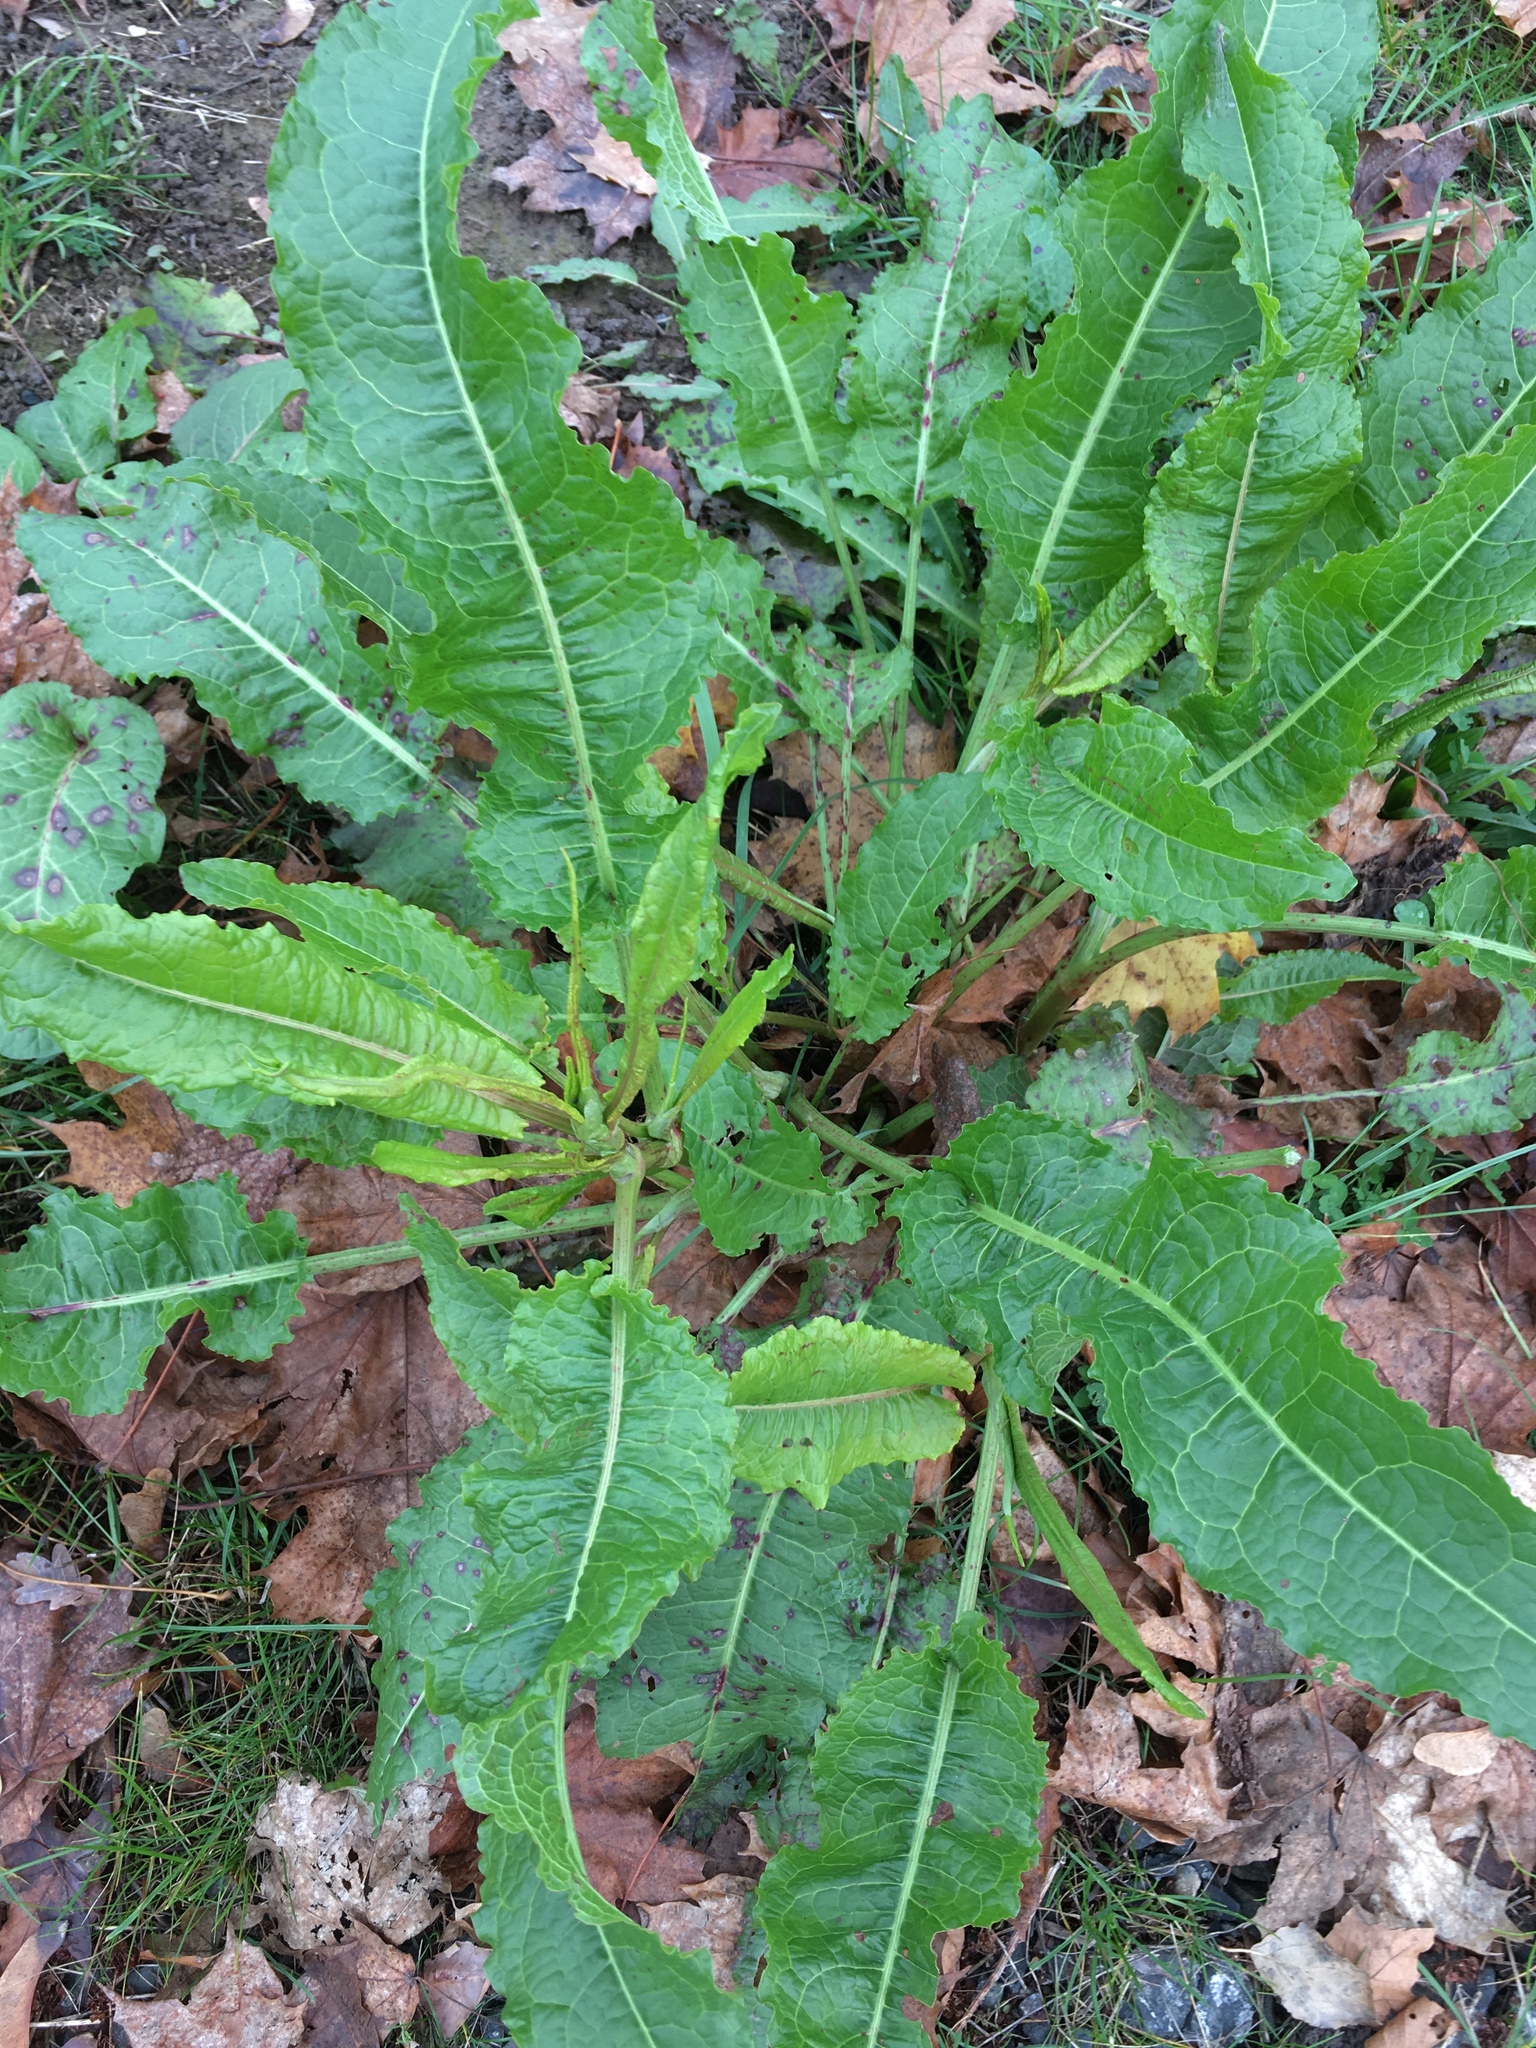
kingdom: Plantae
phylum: Tracheophyta
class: Magnoliopsida
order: Caryophyllales
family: Polygonaceae
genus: Rumex
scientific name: Rumex crispus
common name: Curled dock
